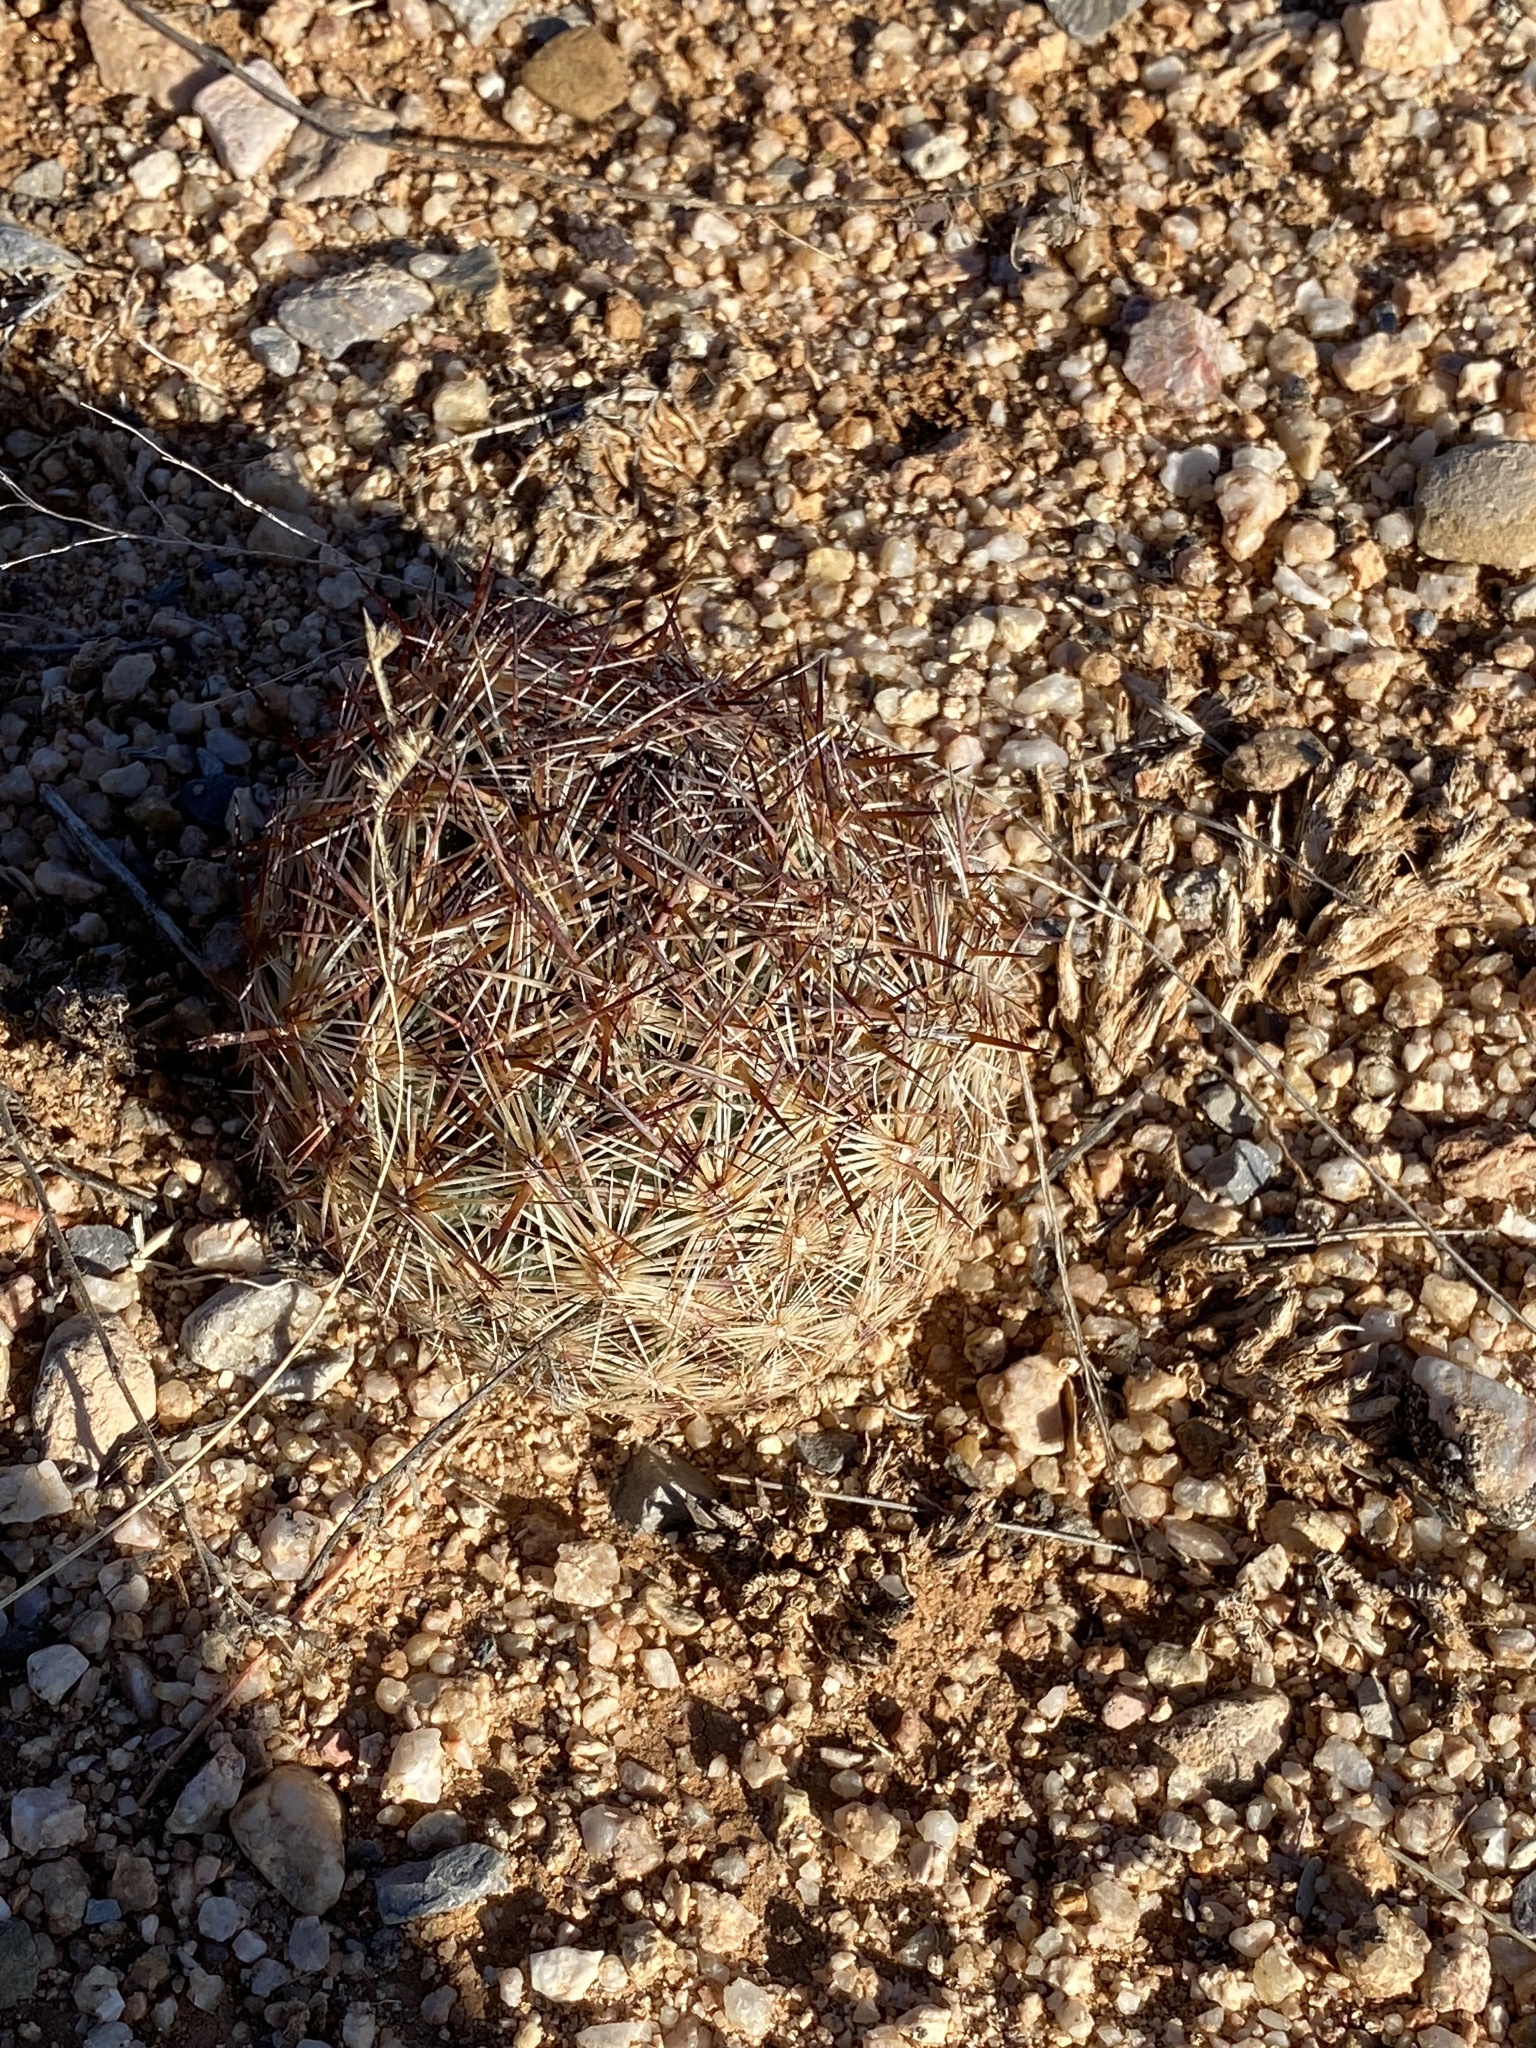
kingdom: Plantae
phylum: Tracheophyta
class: Magnoliopsida
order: Caryophyllales
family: Cactaceae
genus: Pelecyphora
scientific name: Pelecyphora vivipara
